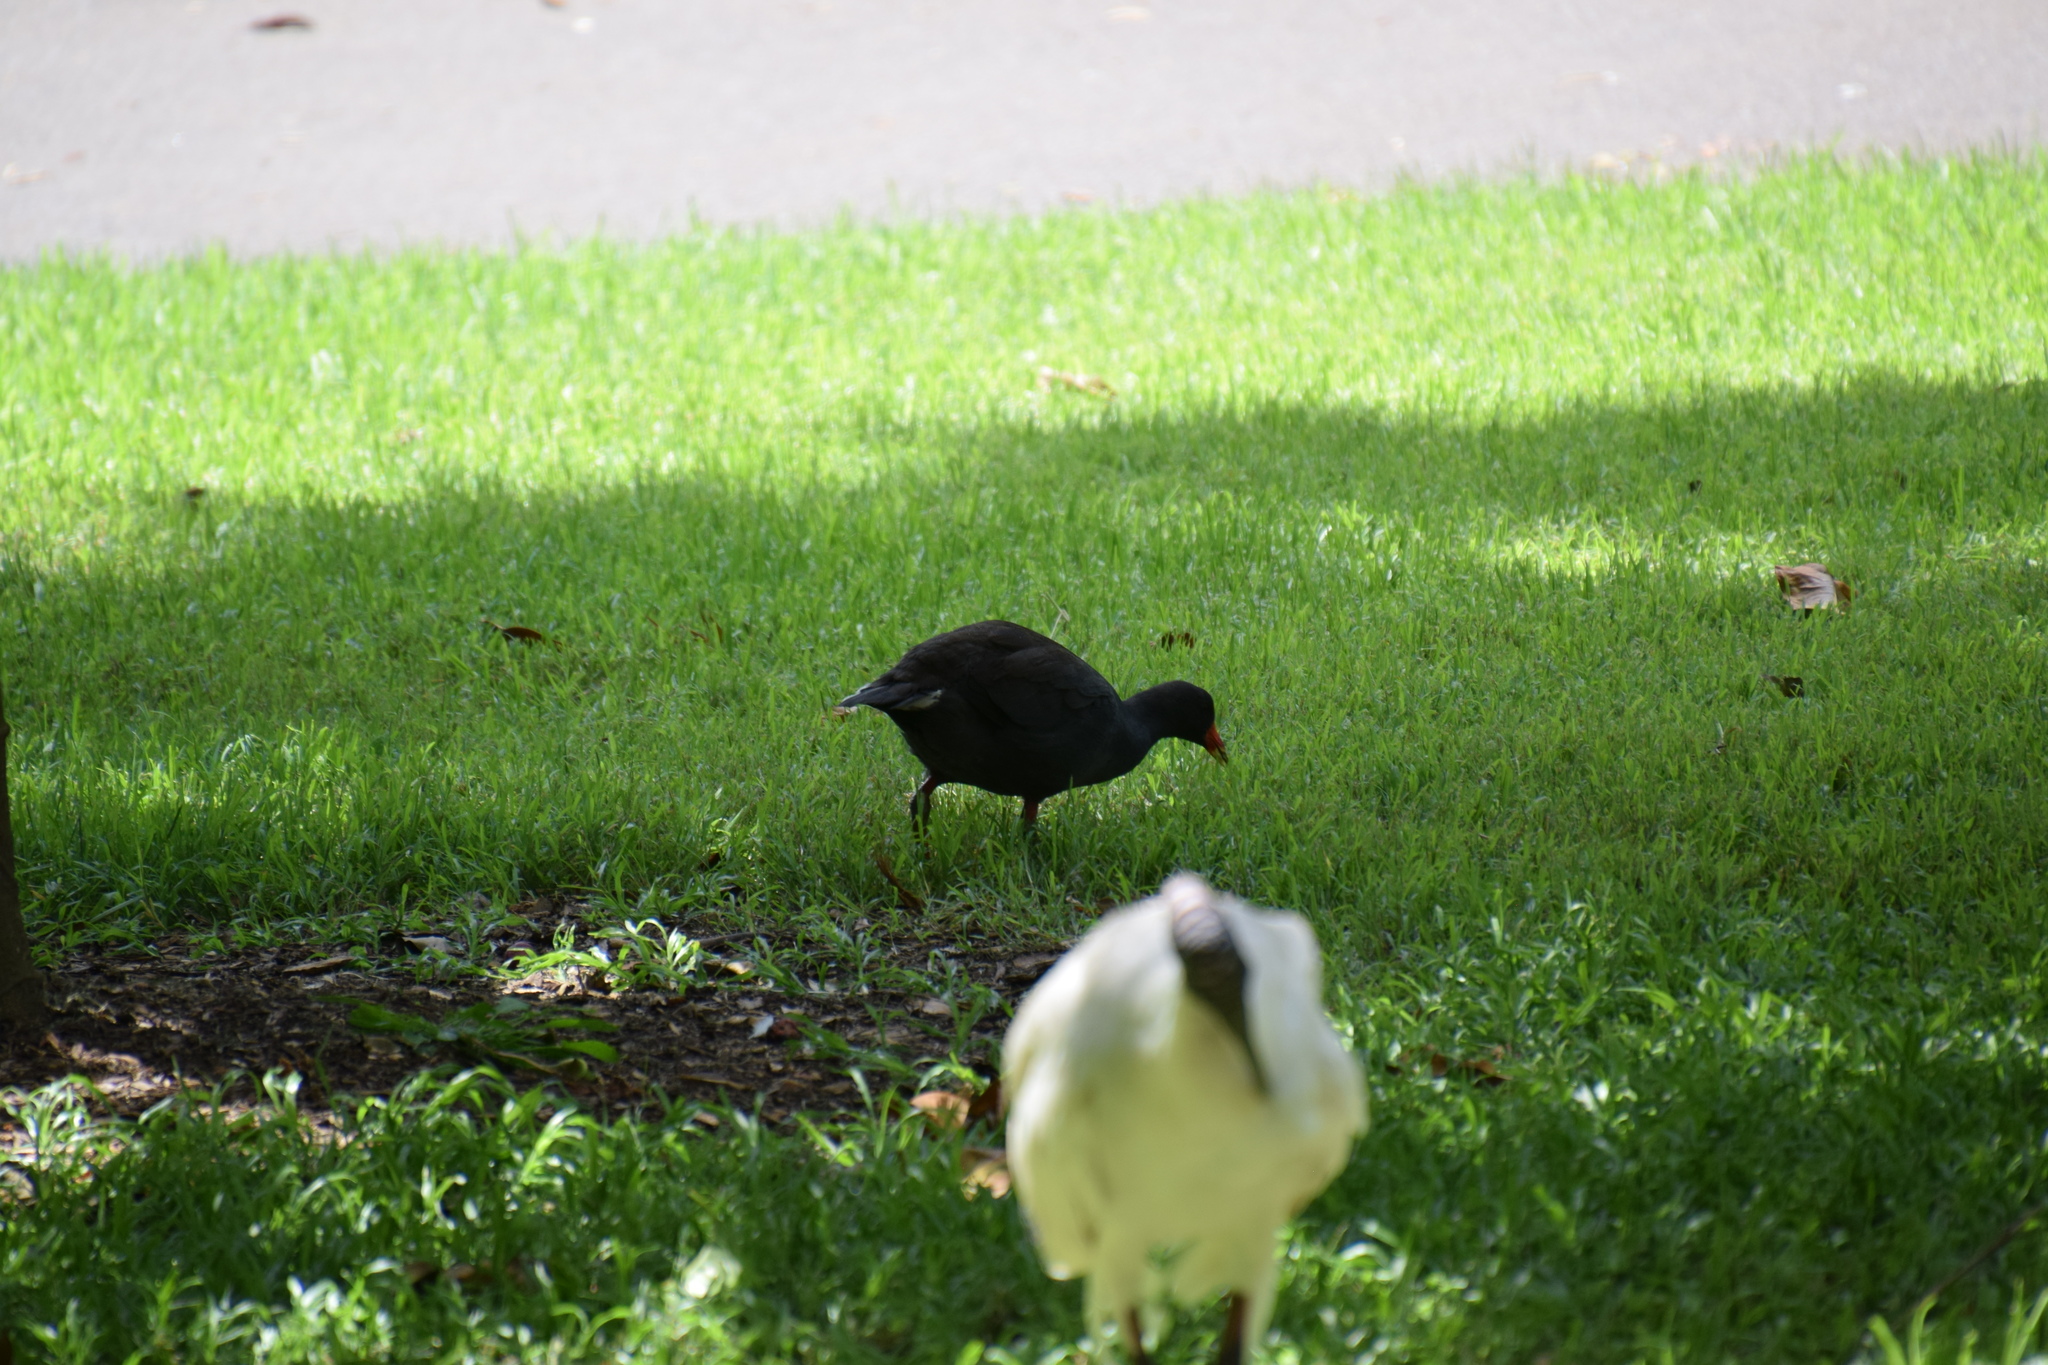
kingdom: Animalia
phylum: Chordata
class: Aves
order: Gruiformes
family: Rallidae
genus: Gallinula
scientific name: Gallinula tenebrosa
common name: Dusky moorhen
